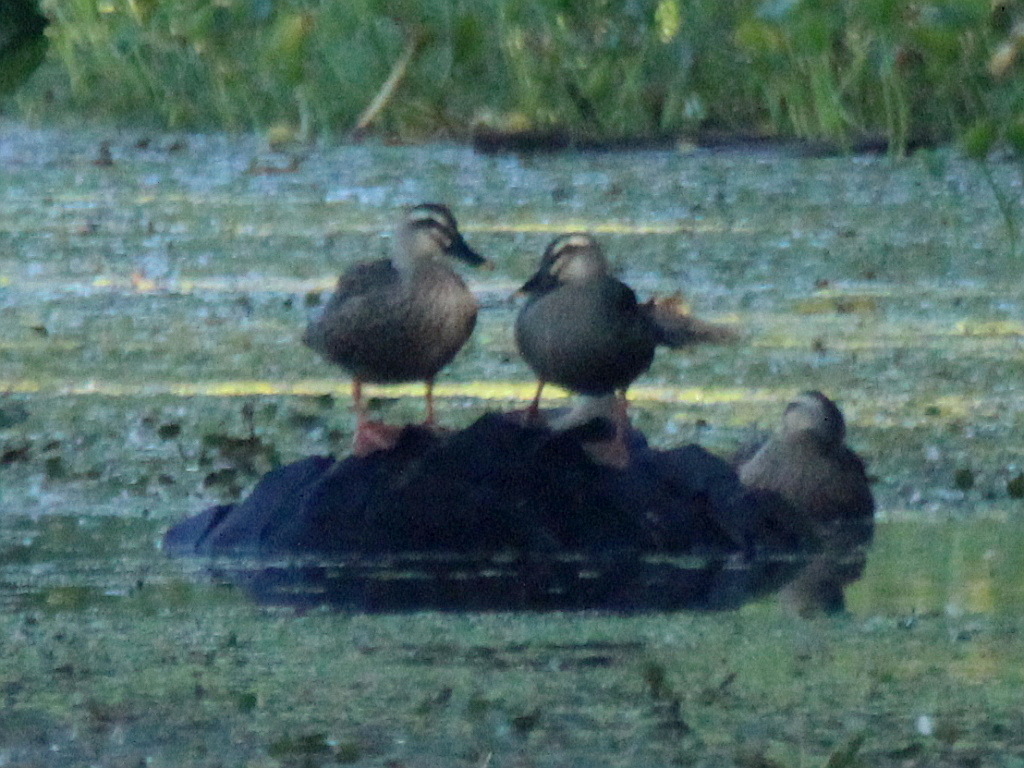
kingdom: Animalia
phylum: Chordata
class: Aves
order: Anseriformes
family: Anatidae
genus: Anas
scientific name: Anas zonorhyncha
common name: Eastern spot-billed duck
